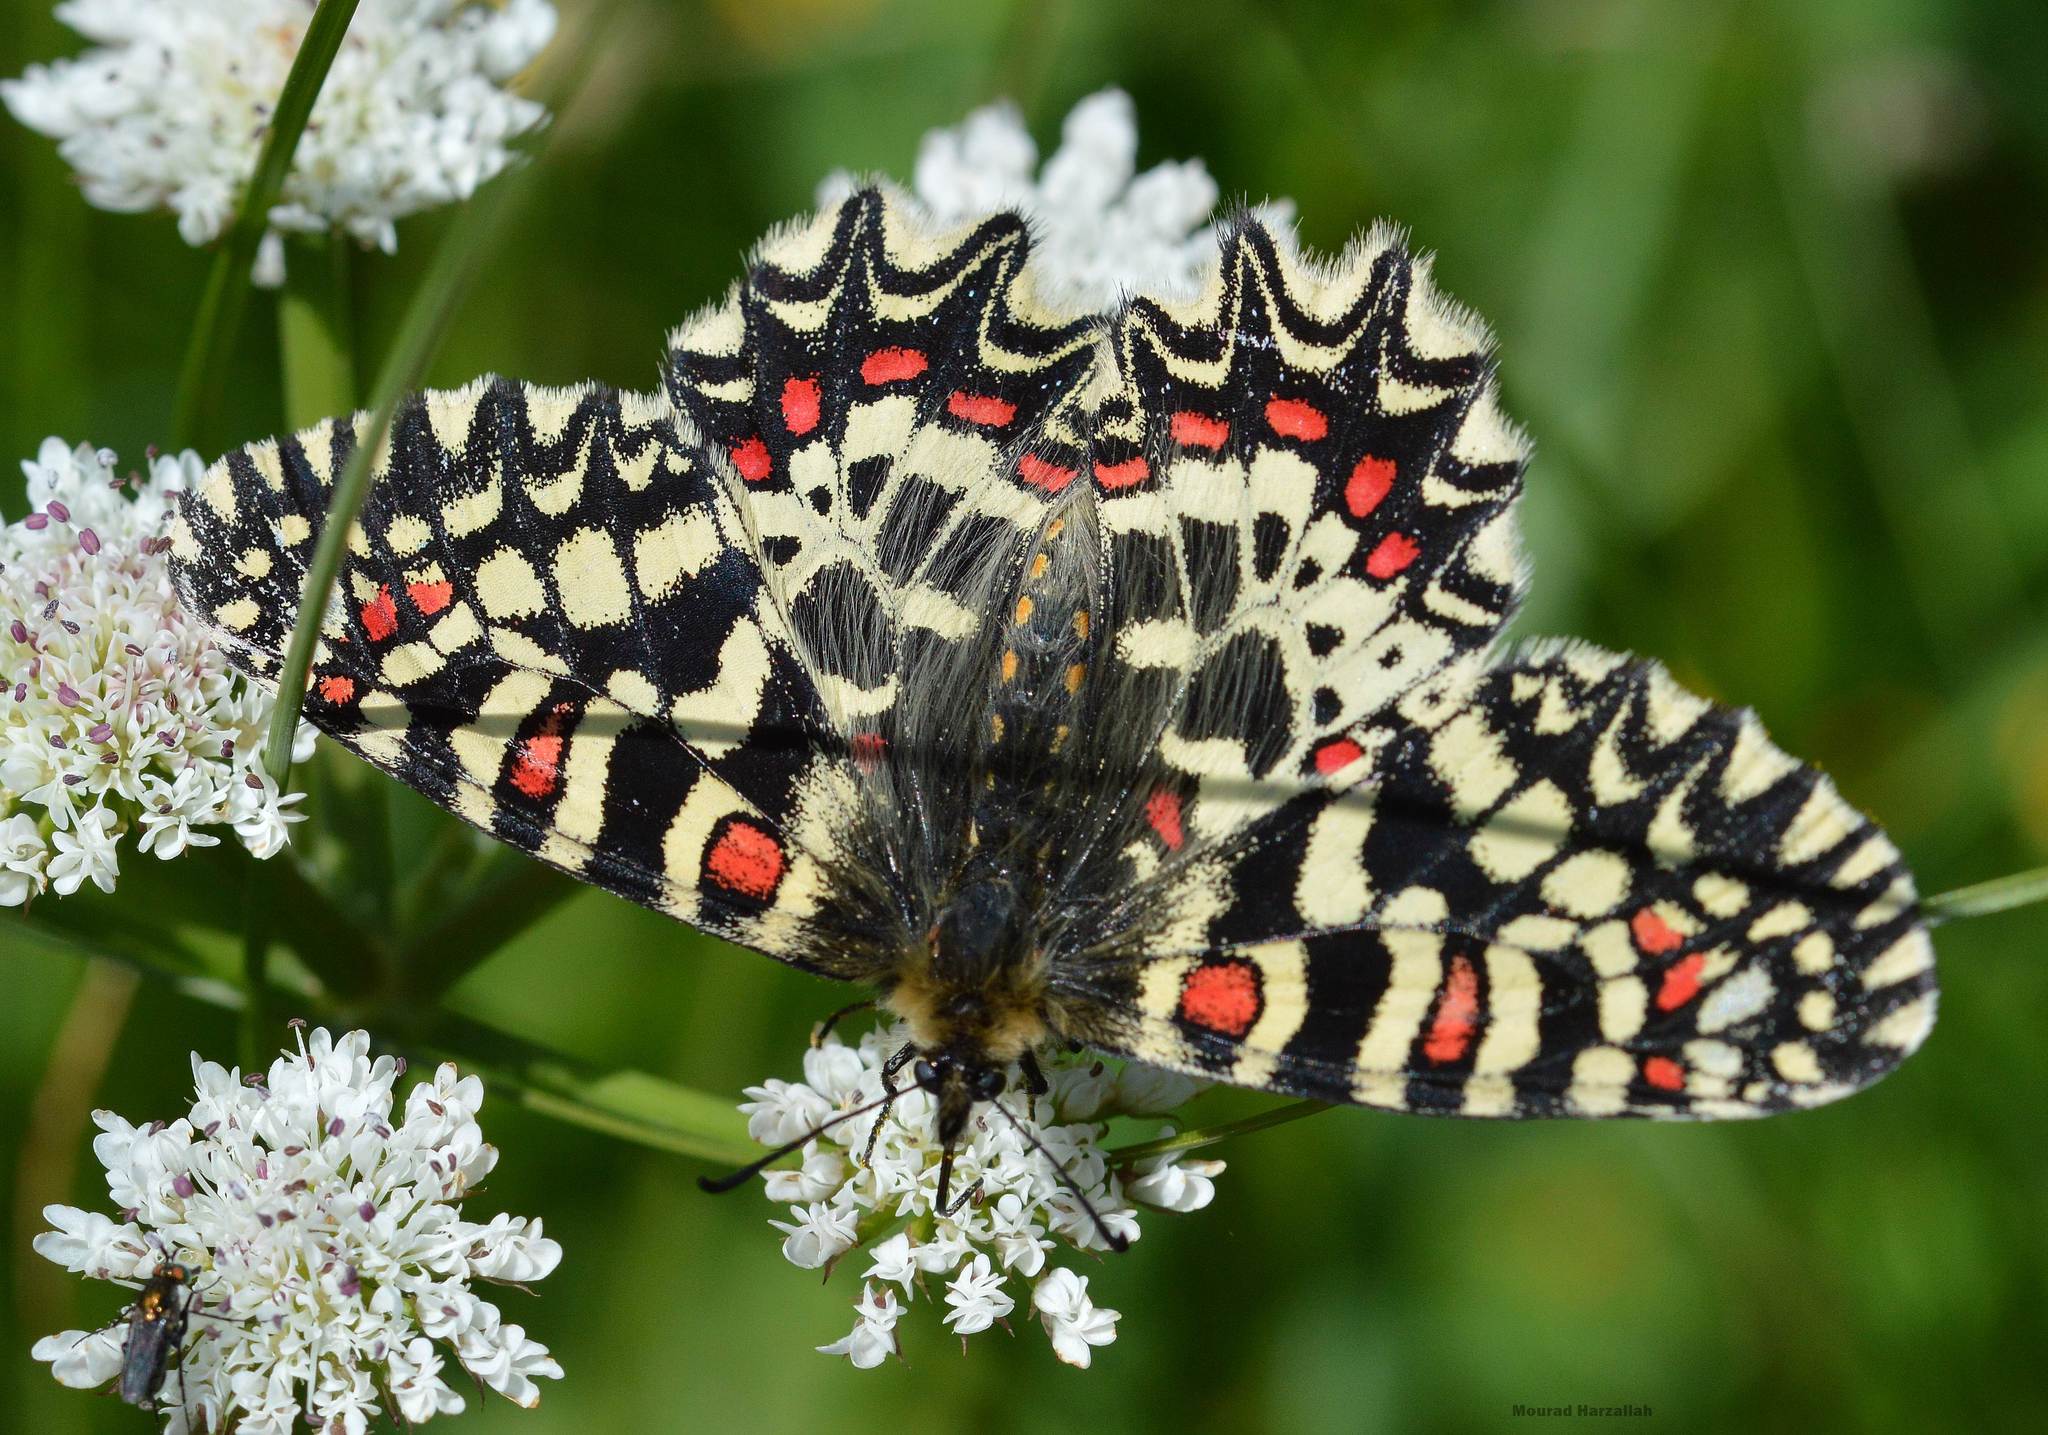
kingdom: Animalia
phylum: Arthropoda
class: Insecta
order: Lepidoptera
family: Papilionidae
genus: Zerynthia
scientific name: Zerynthia rumina
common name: Spanish festoon
